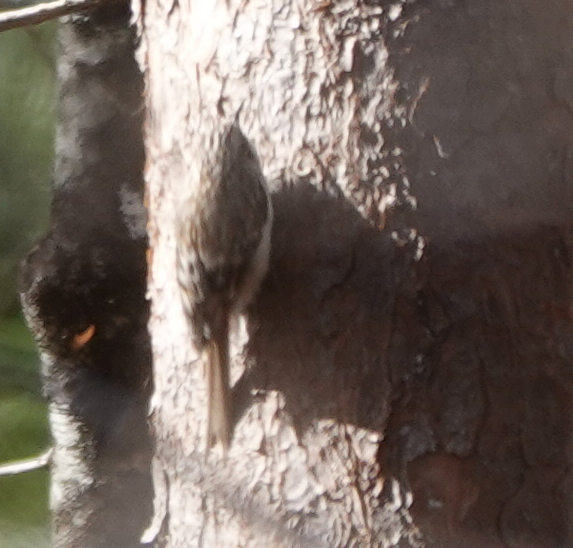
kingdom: Animalia
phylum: Chordata
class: Aves
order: Passeriformes
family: Certhiidae
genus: Certhia
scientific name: Certhia americana
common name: Brown creeper
